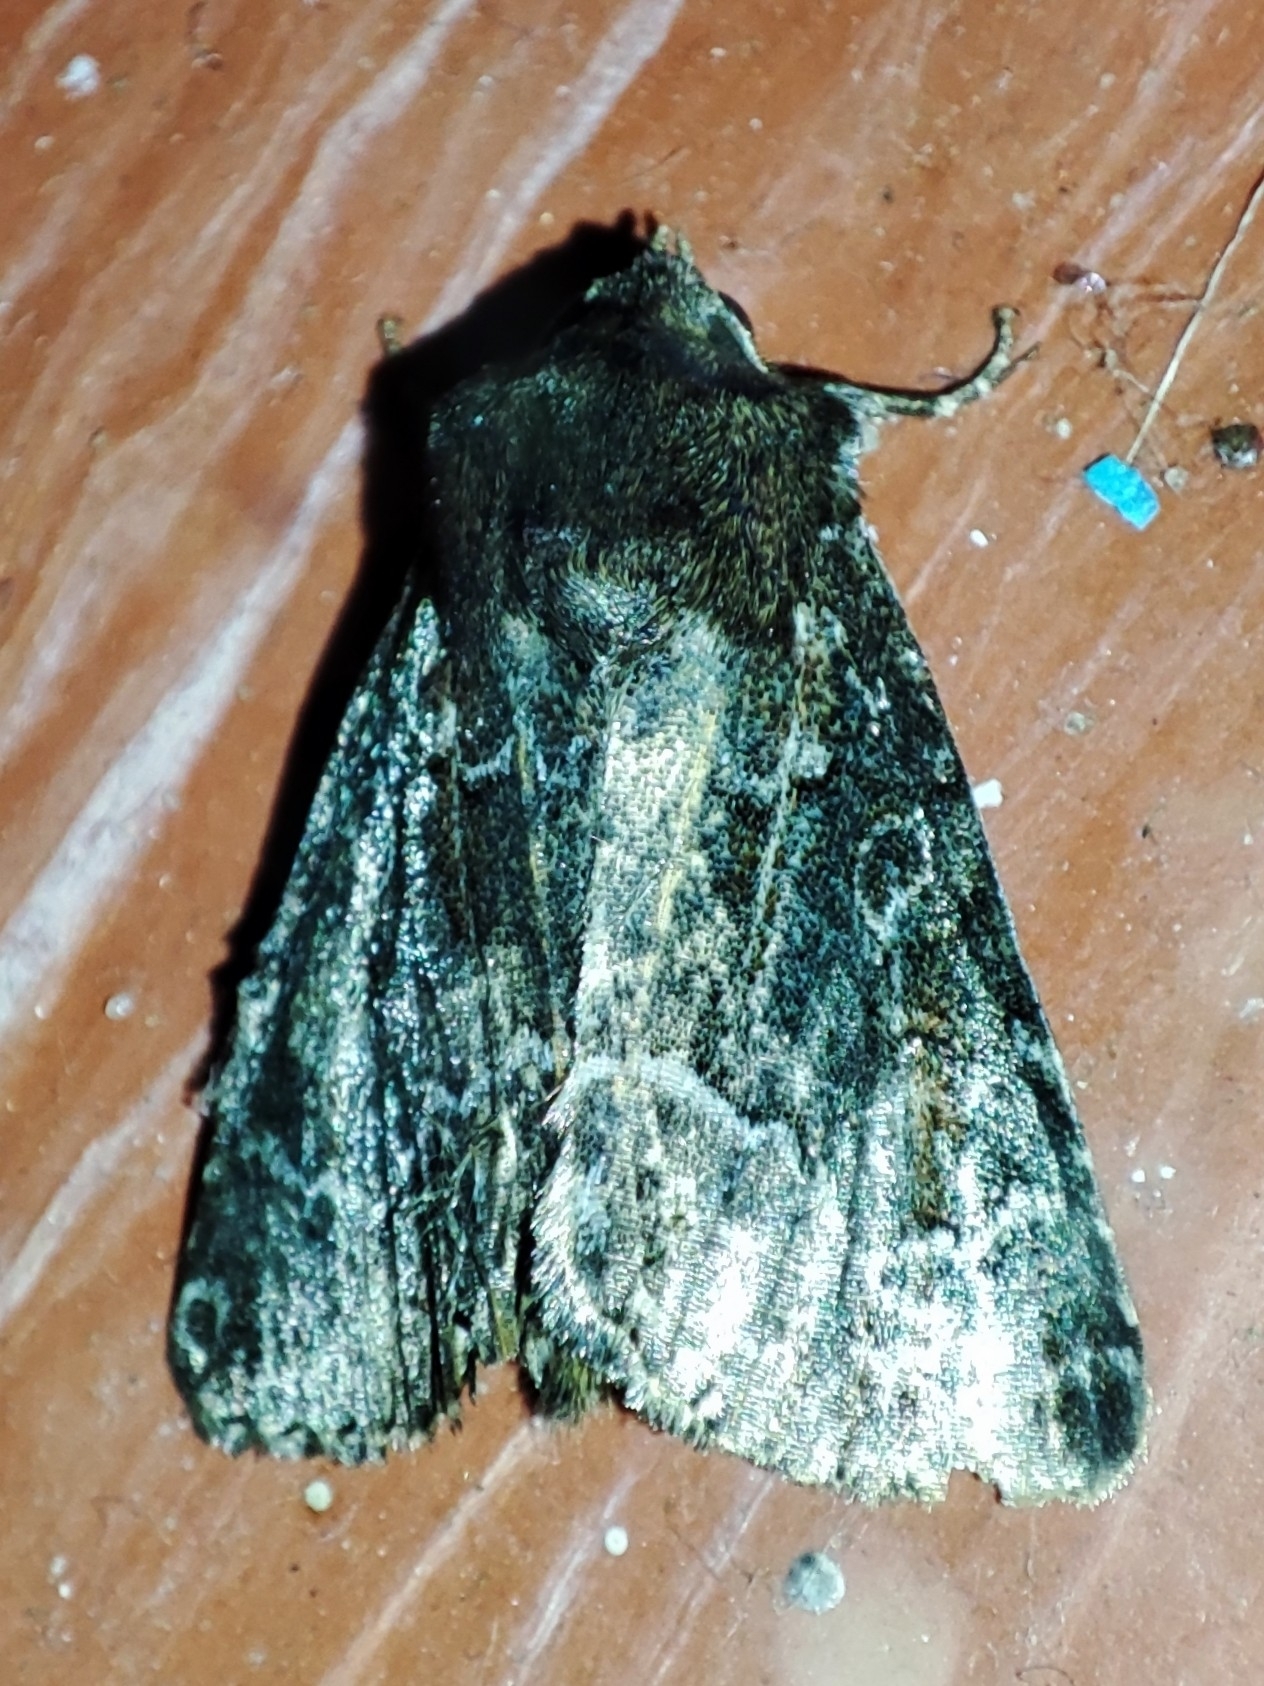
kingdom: Animalia
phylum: Arthropoda
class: Insecta
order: Lepidoptera
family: Noctuidae
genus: Thalpophila
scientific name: Thalpophila matura
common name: Straw underwing
